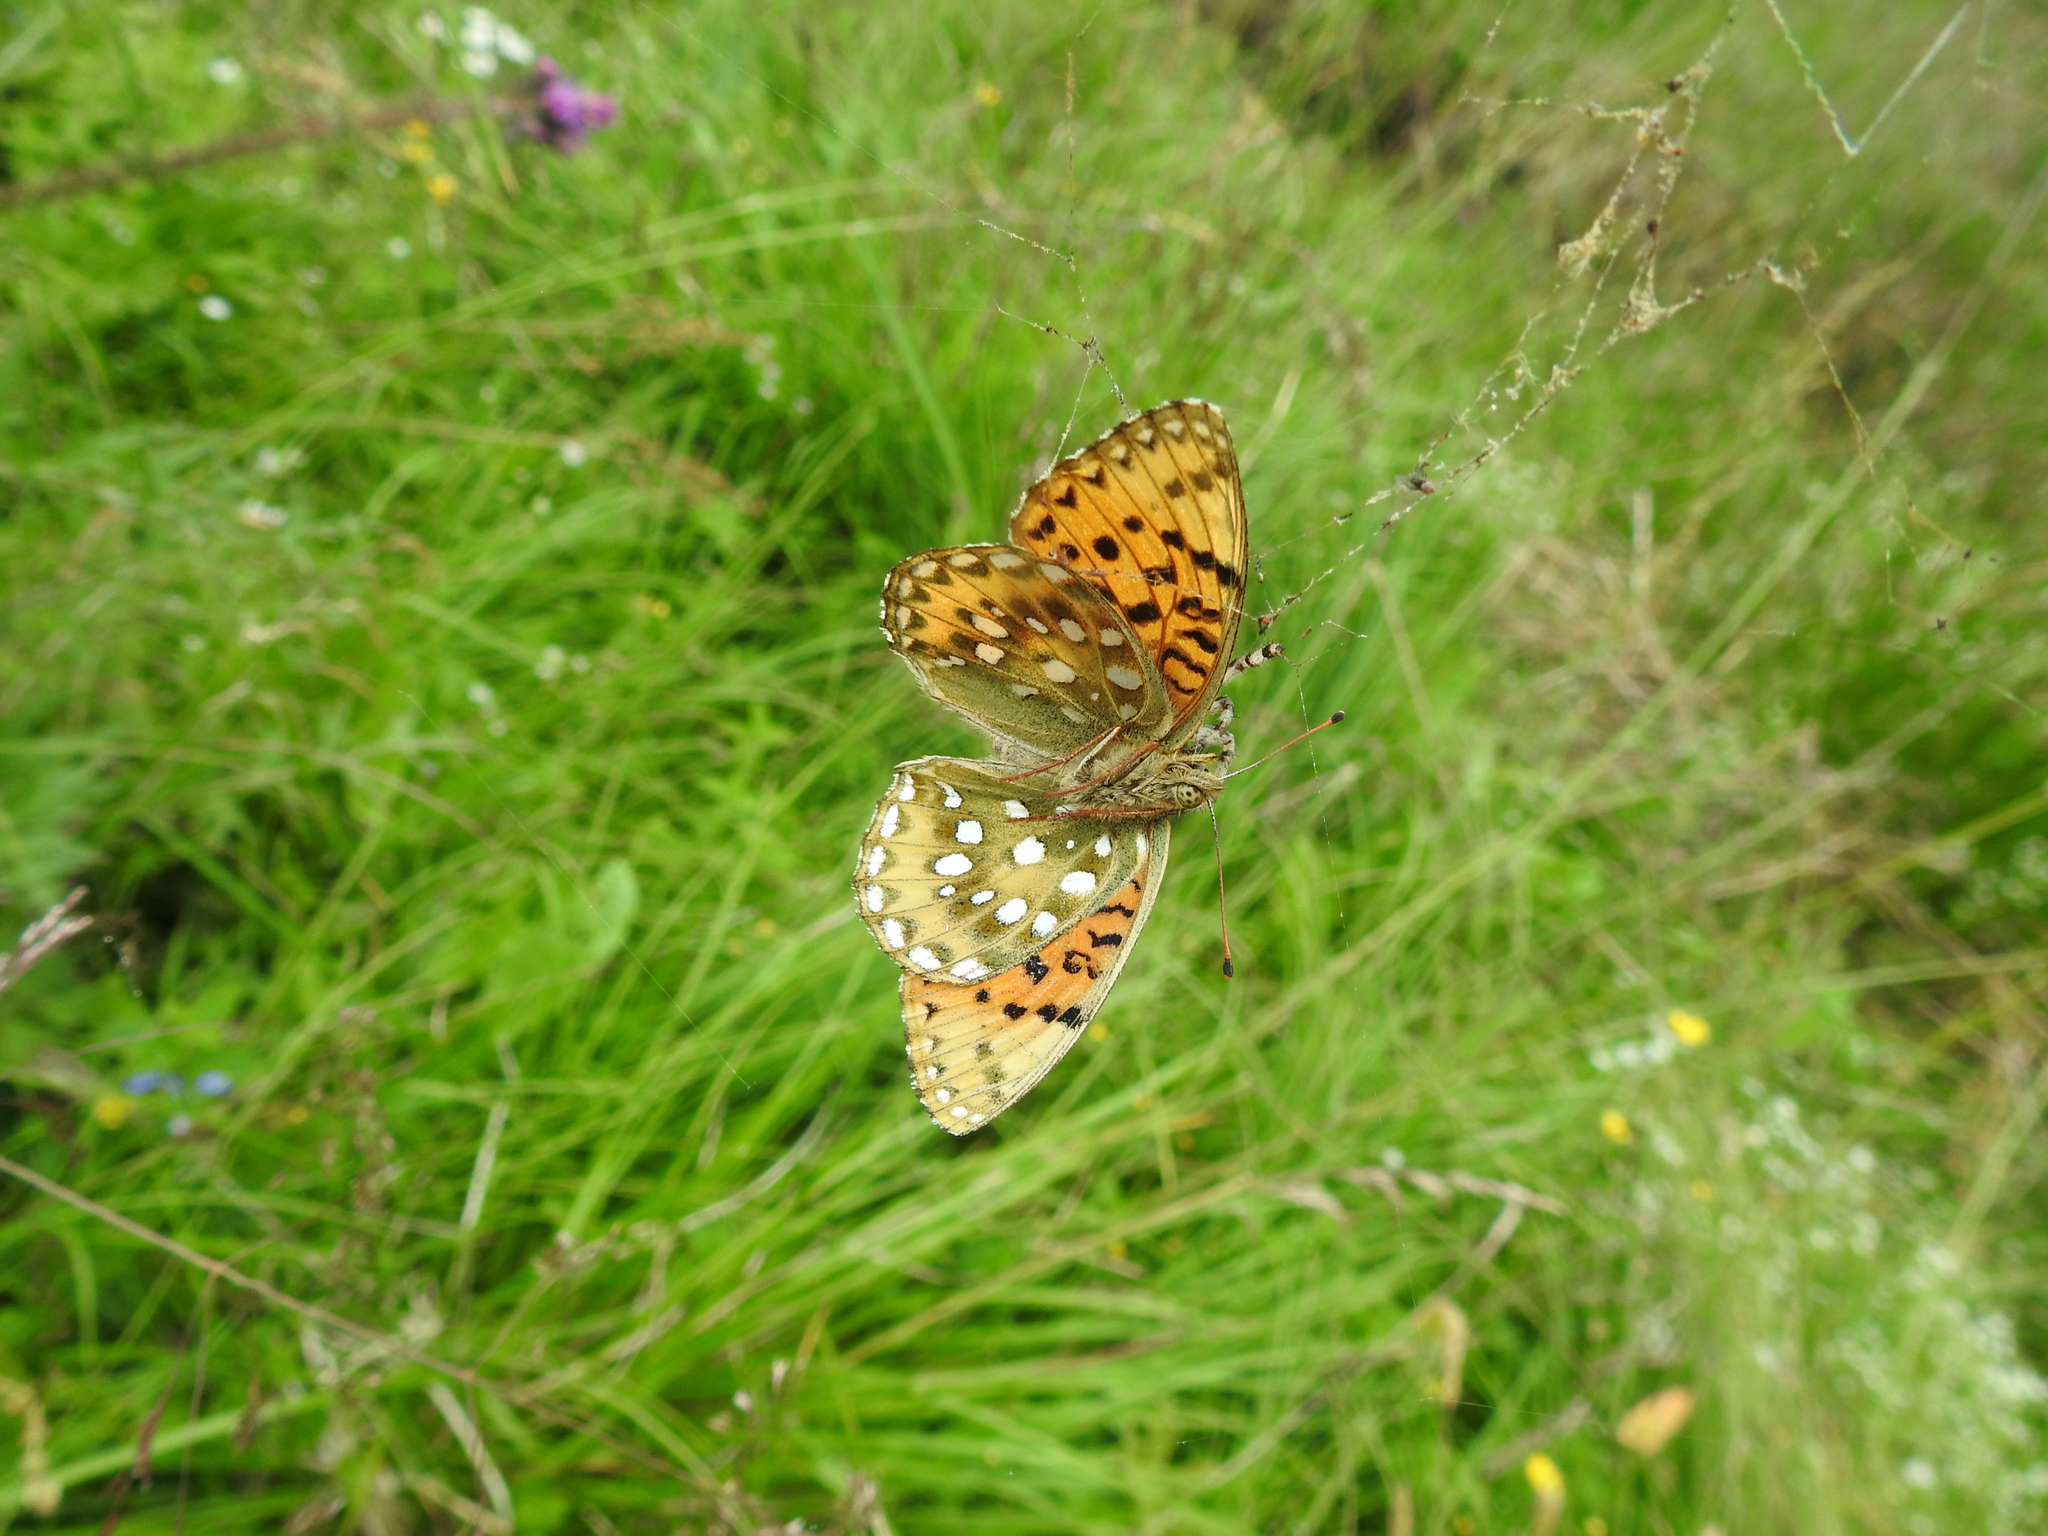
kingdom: Animalia
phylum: Arthropoda
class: Insecta
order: Lepidoptera
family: Nymphalidae
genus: Speyeria
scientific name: Speyeria aglaja
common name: Dark green fritillary
